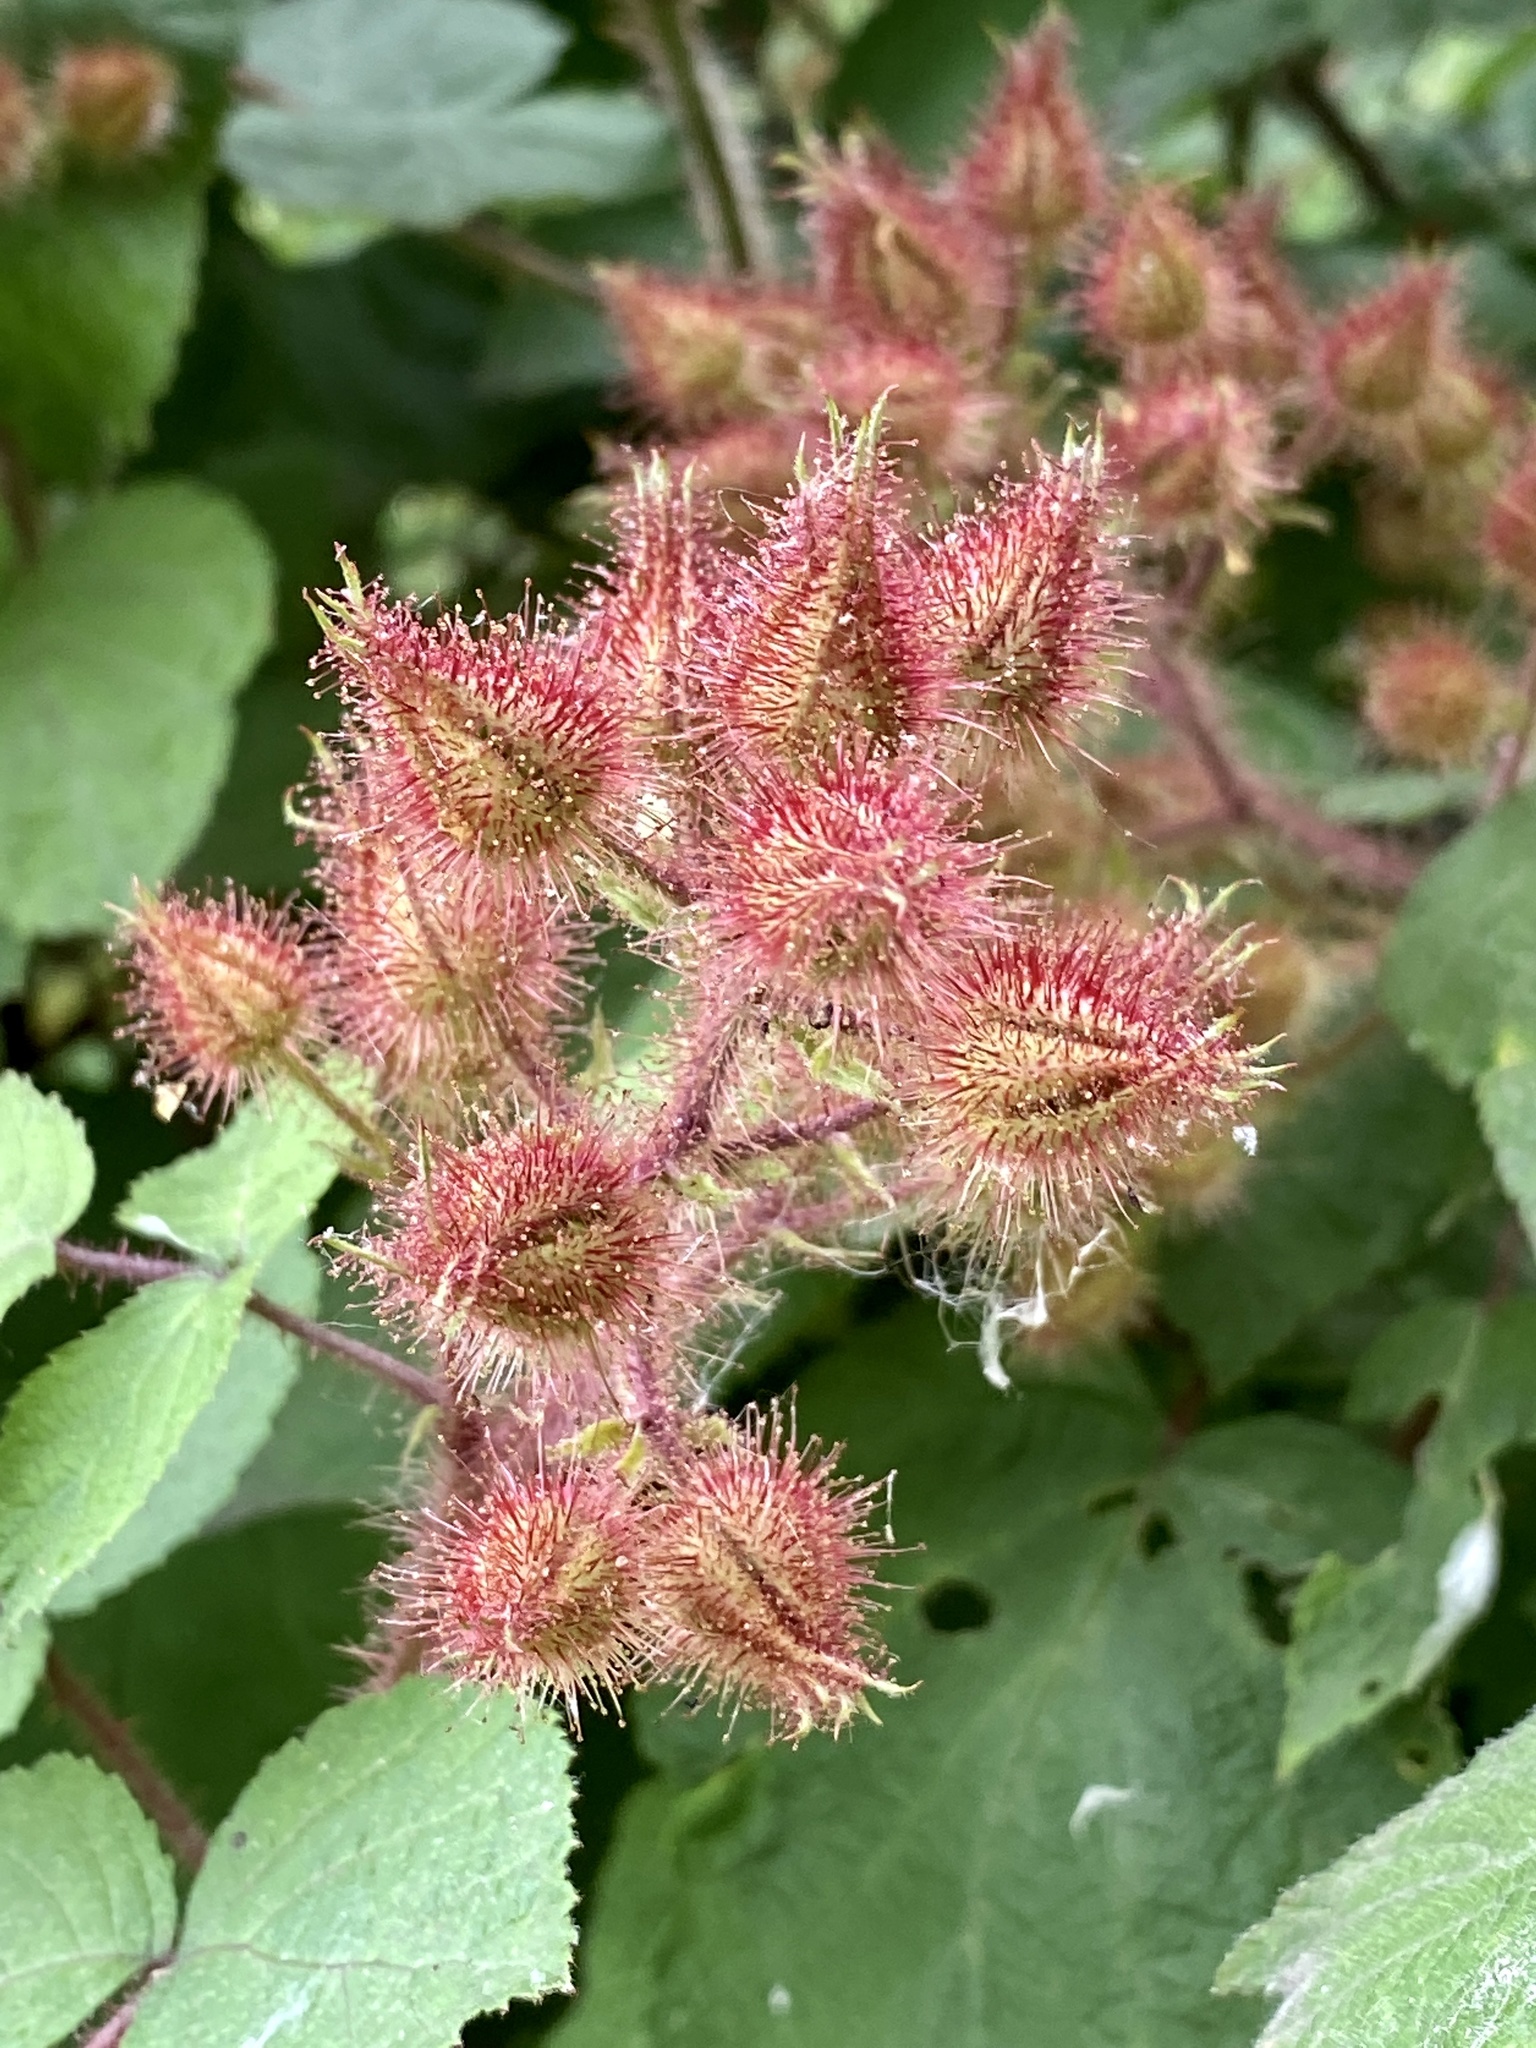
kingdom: Plantae
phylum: Tracheophyta
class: Magnoliopsida
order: Rosales
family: Rosaceae
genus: Rubus
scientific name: Rubus phoenicolasius
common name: Japanese wineberry
